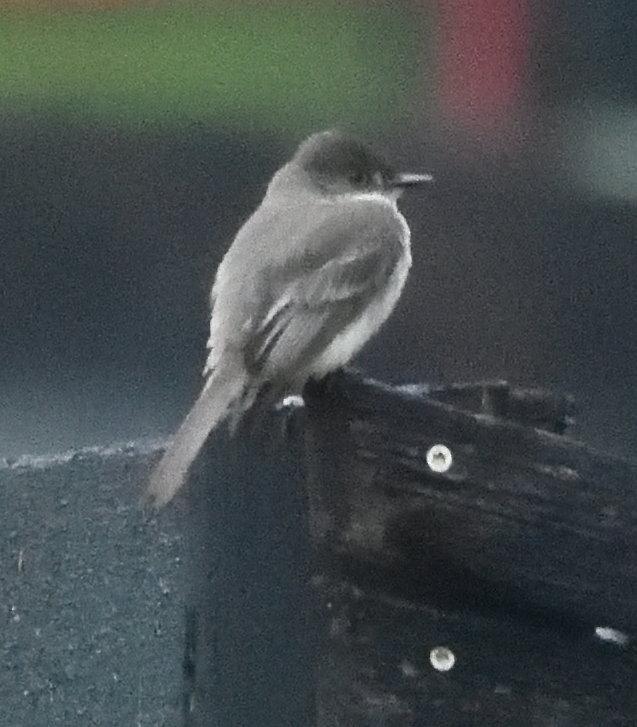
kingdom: Animalia
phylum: Chordata
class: Aves
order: Passeriformes
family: Tyrannidae
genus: Sayornis
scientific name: Sayornis phoebe
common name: Eastern phoebe
